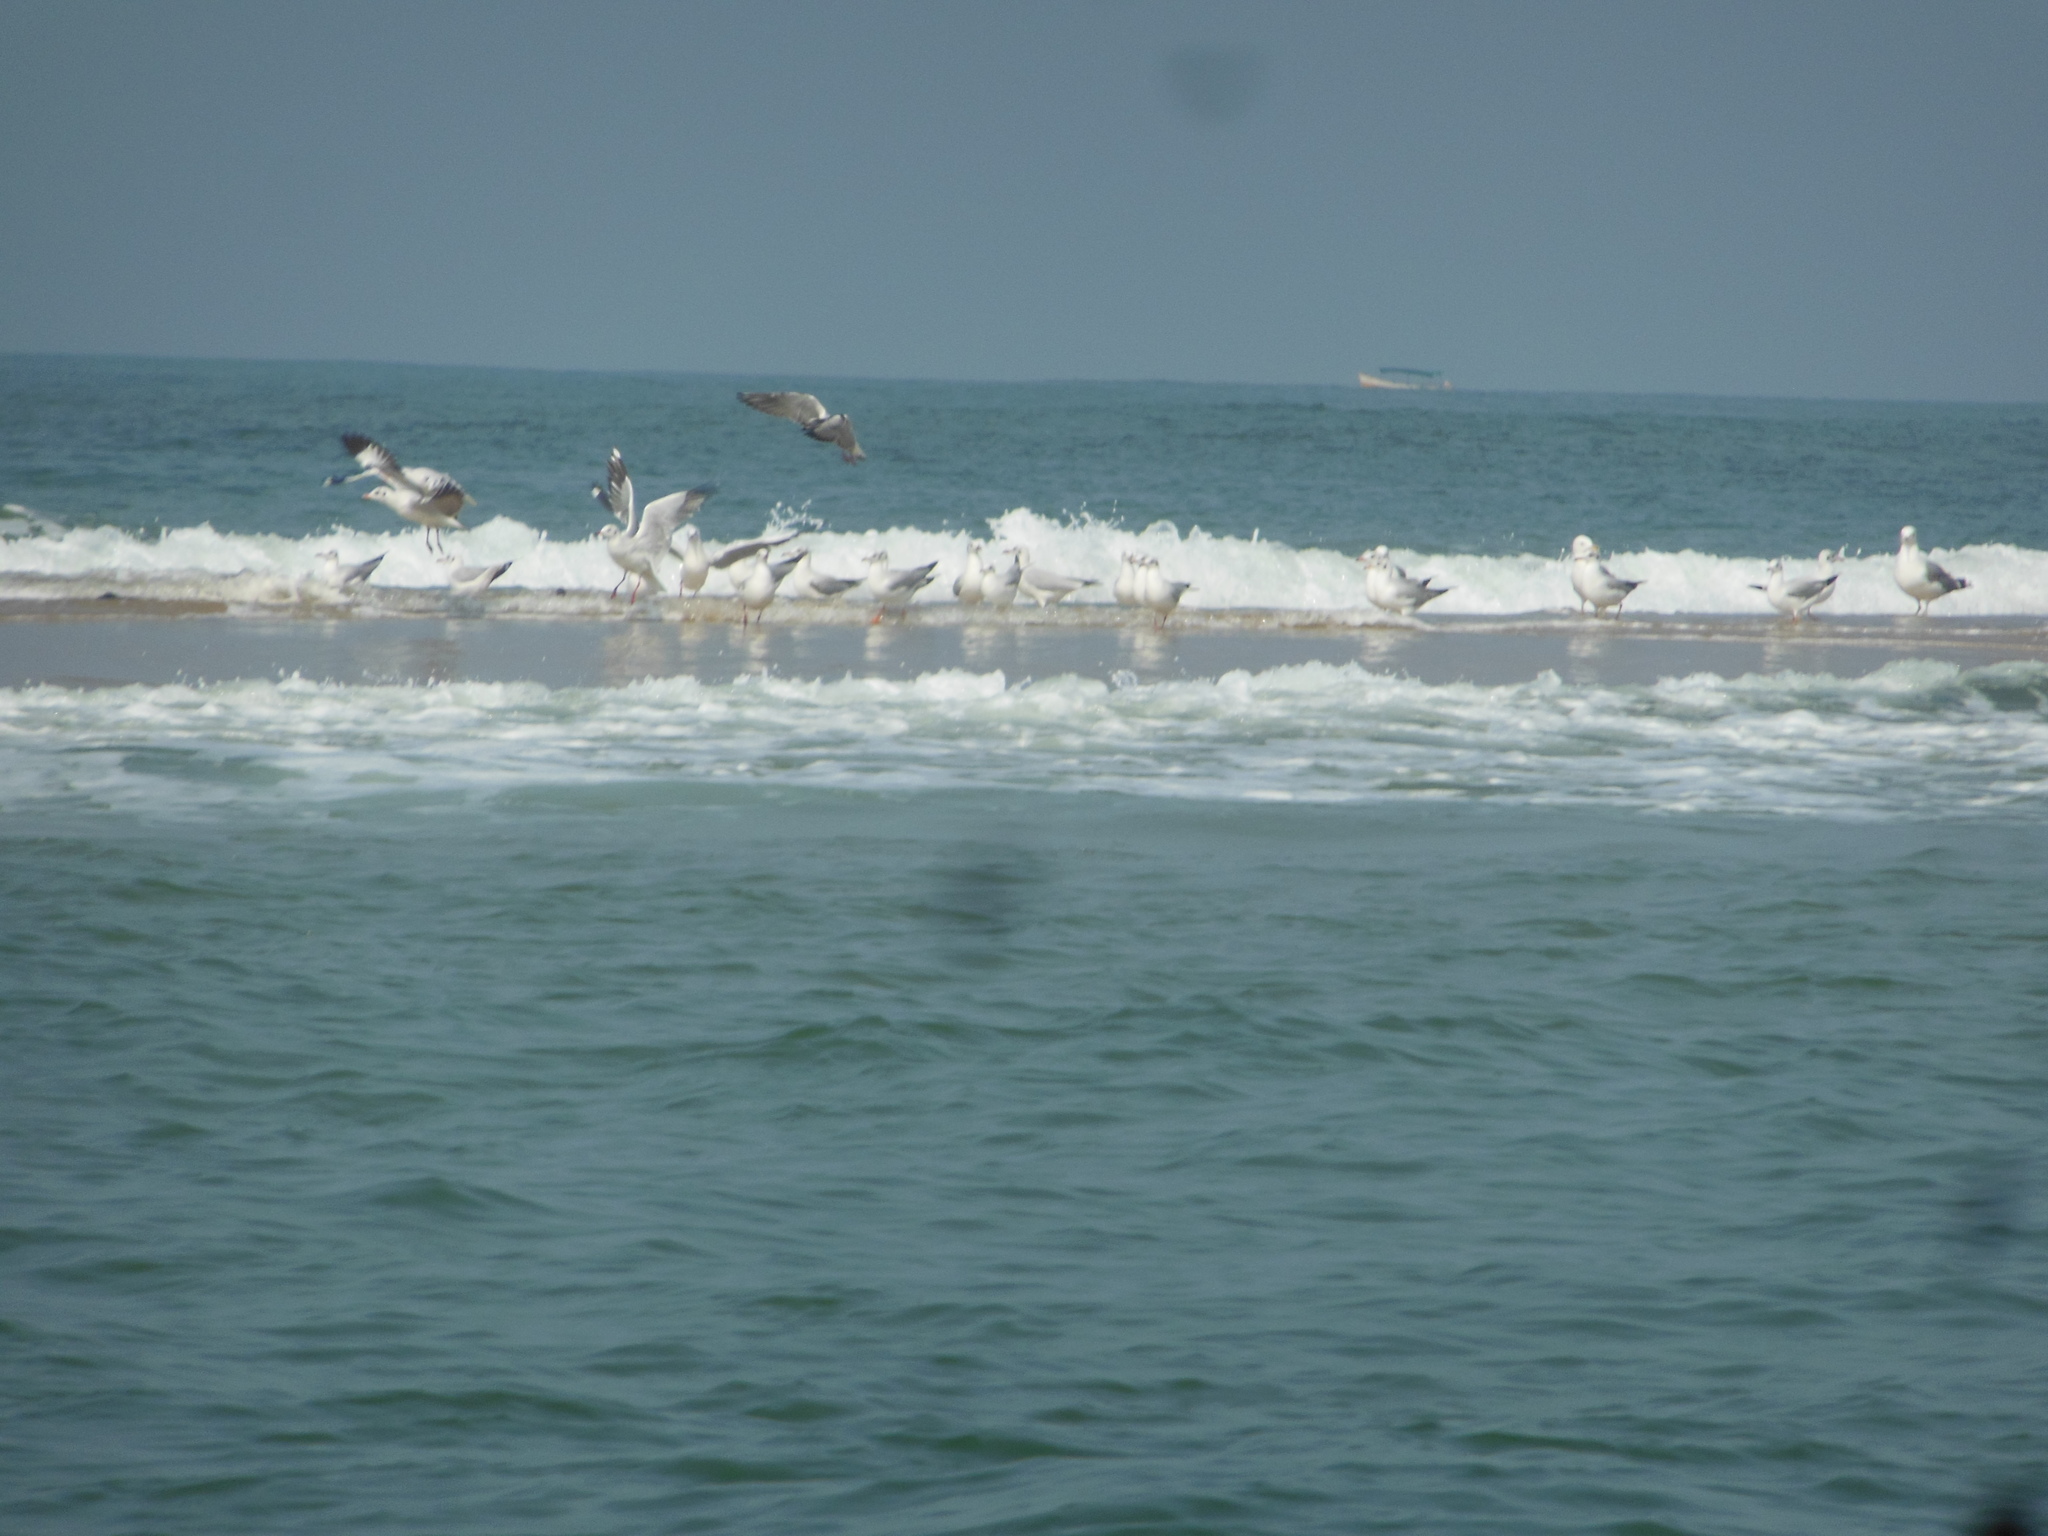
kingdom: Animalia
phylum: Chordata
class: Aves
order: Charadriiformes
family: Laridae
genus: Chroicocephalus
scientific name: Chroicocephalus ridibundus
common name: Black-headed gull
